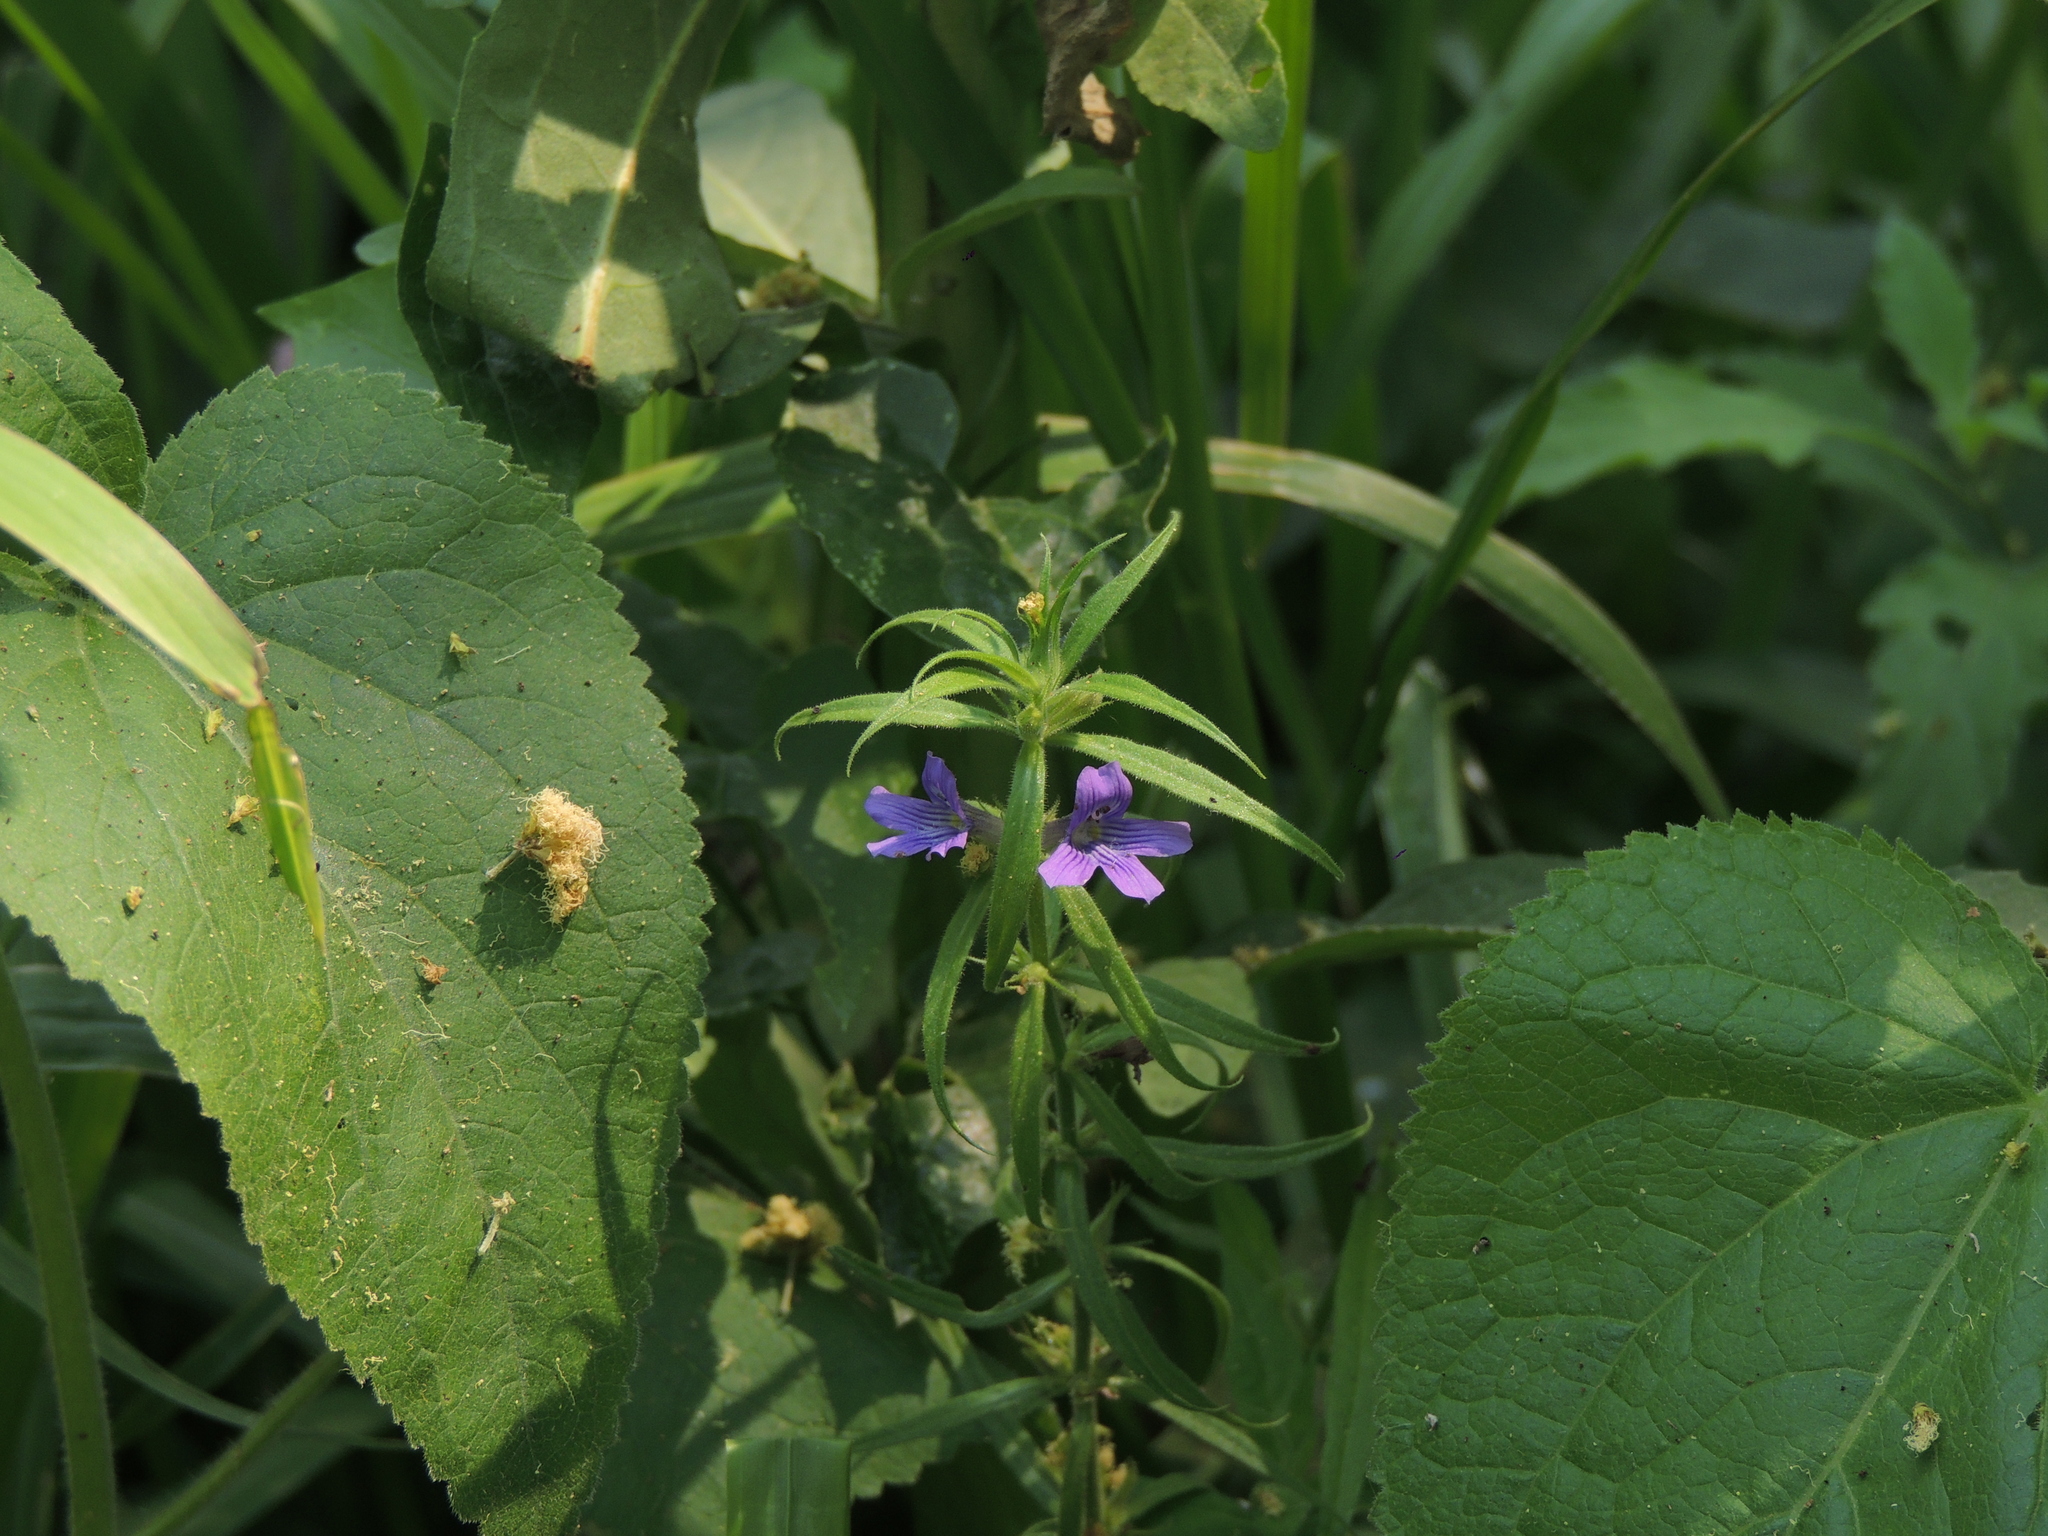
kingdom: Plantae
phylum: Tracheophyta
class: Magnoliopsida
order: Lamiales
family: Plantaginaceae
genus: Stemodia
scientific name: Stemodia lanceolata
